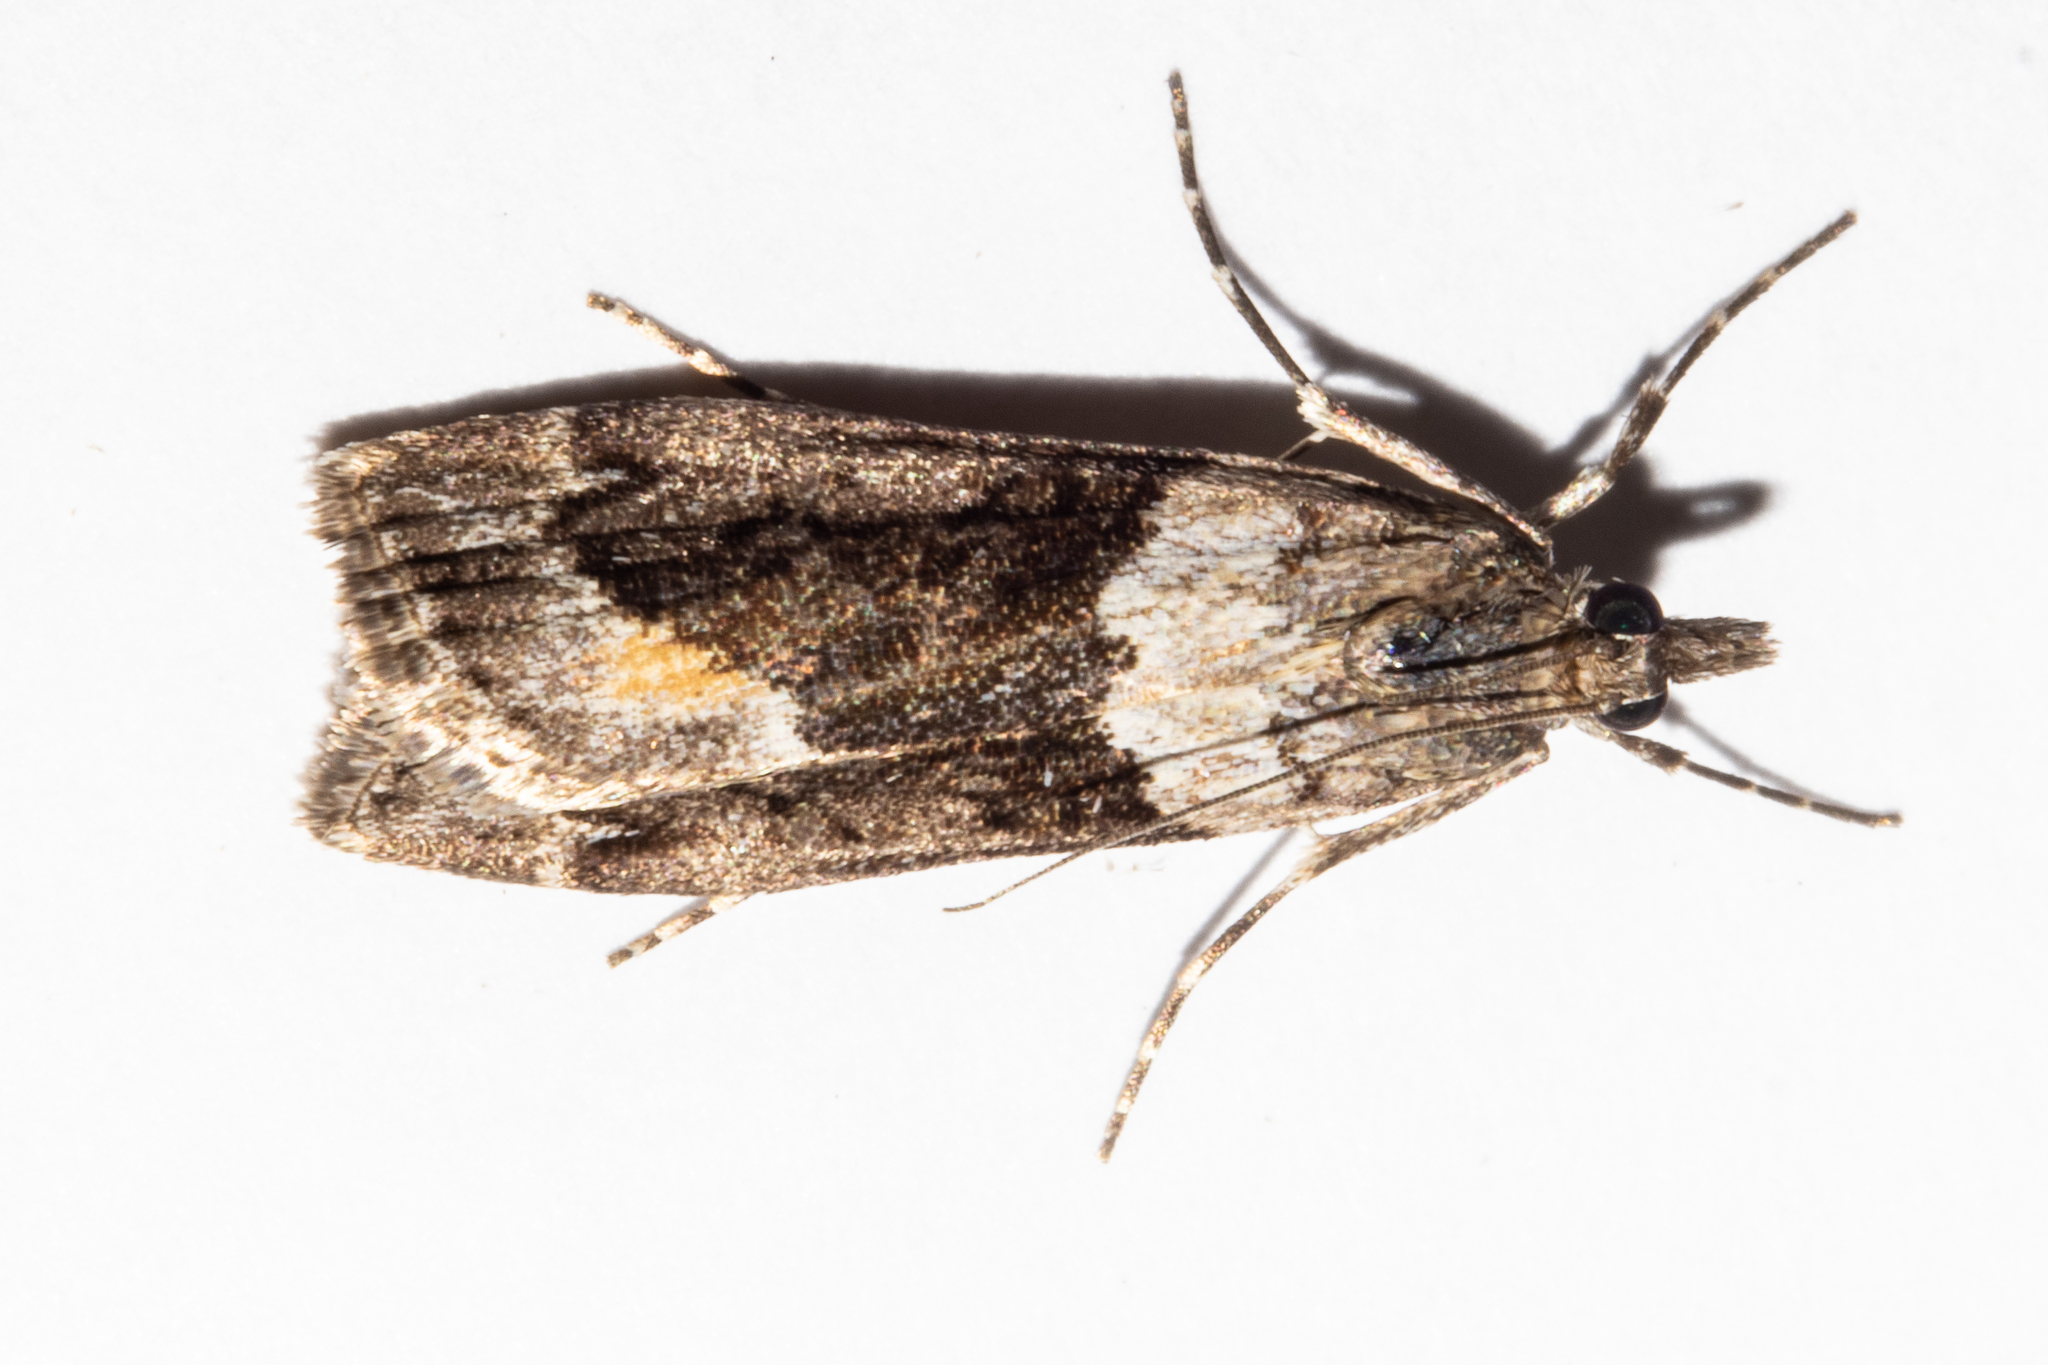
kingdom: Animalia
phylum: Arthropoda
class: Insecta
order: Lepidoptera
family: Crambidae
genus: Eudonia
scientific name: Eudonia submarginalis
